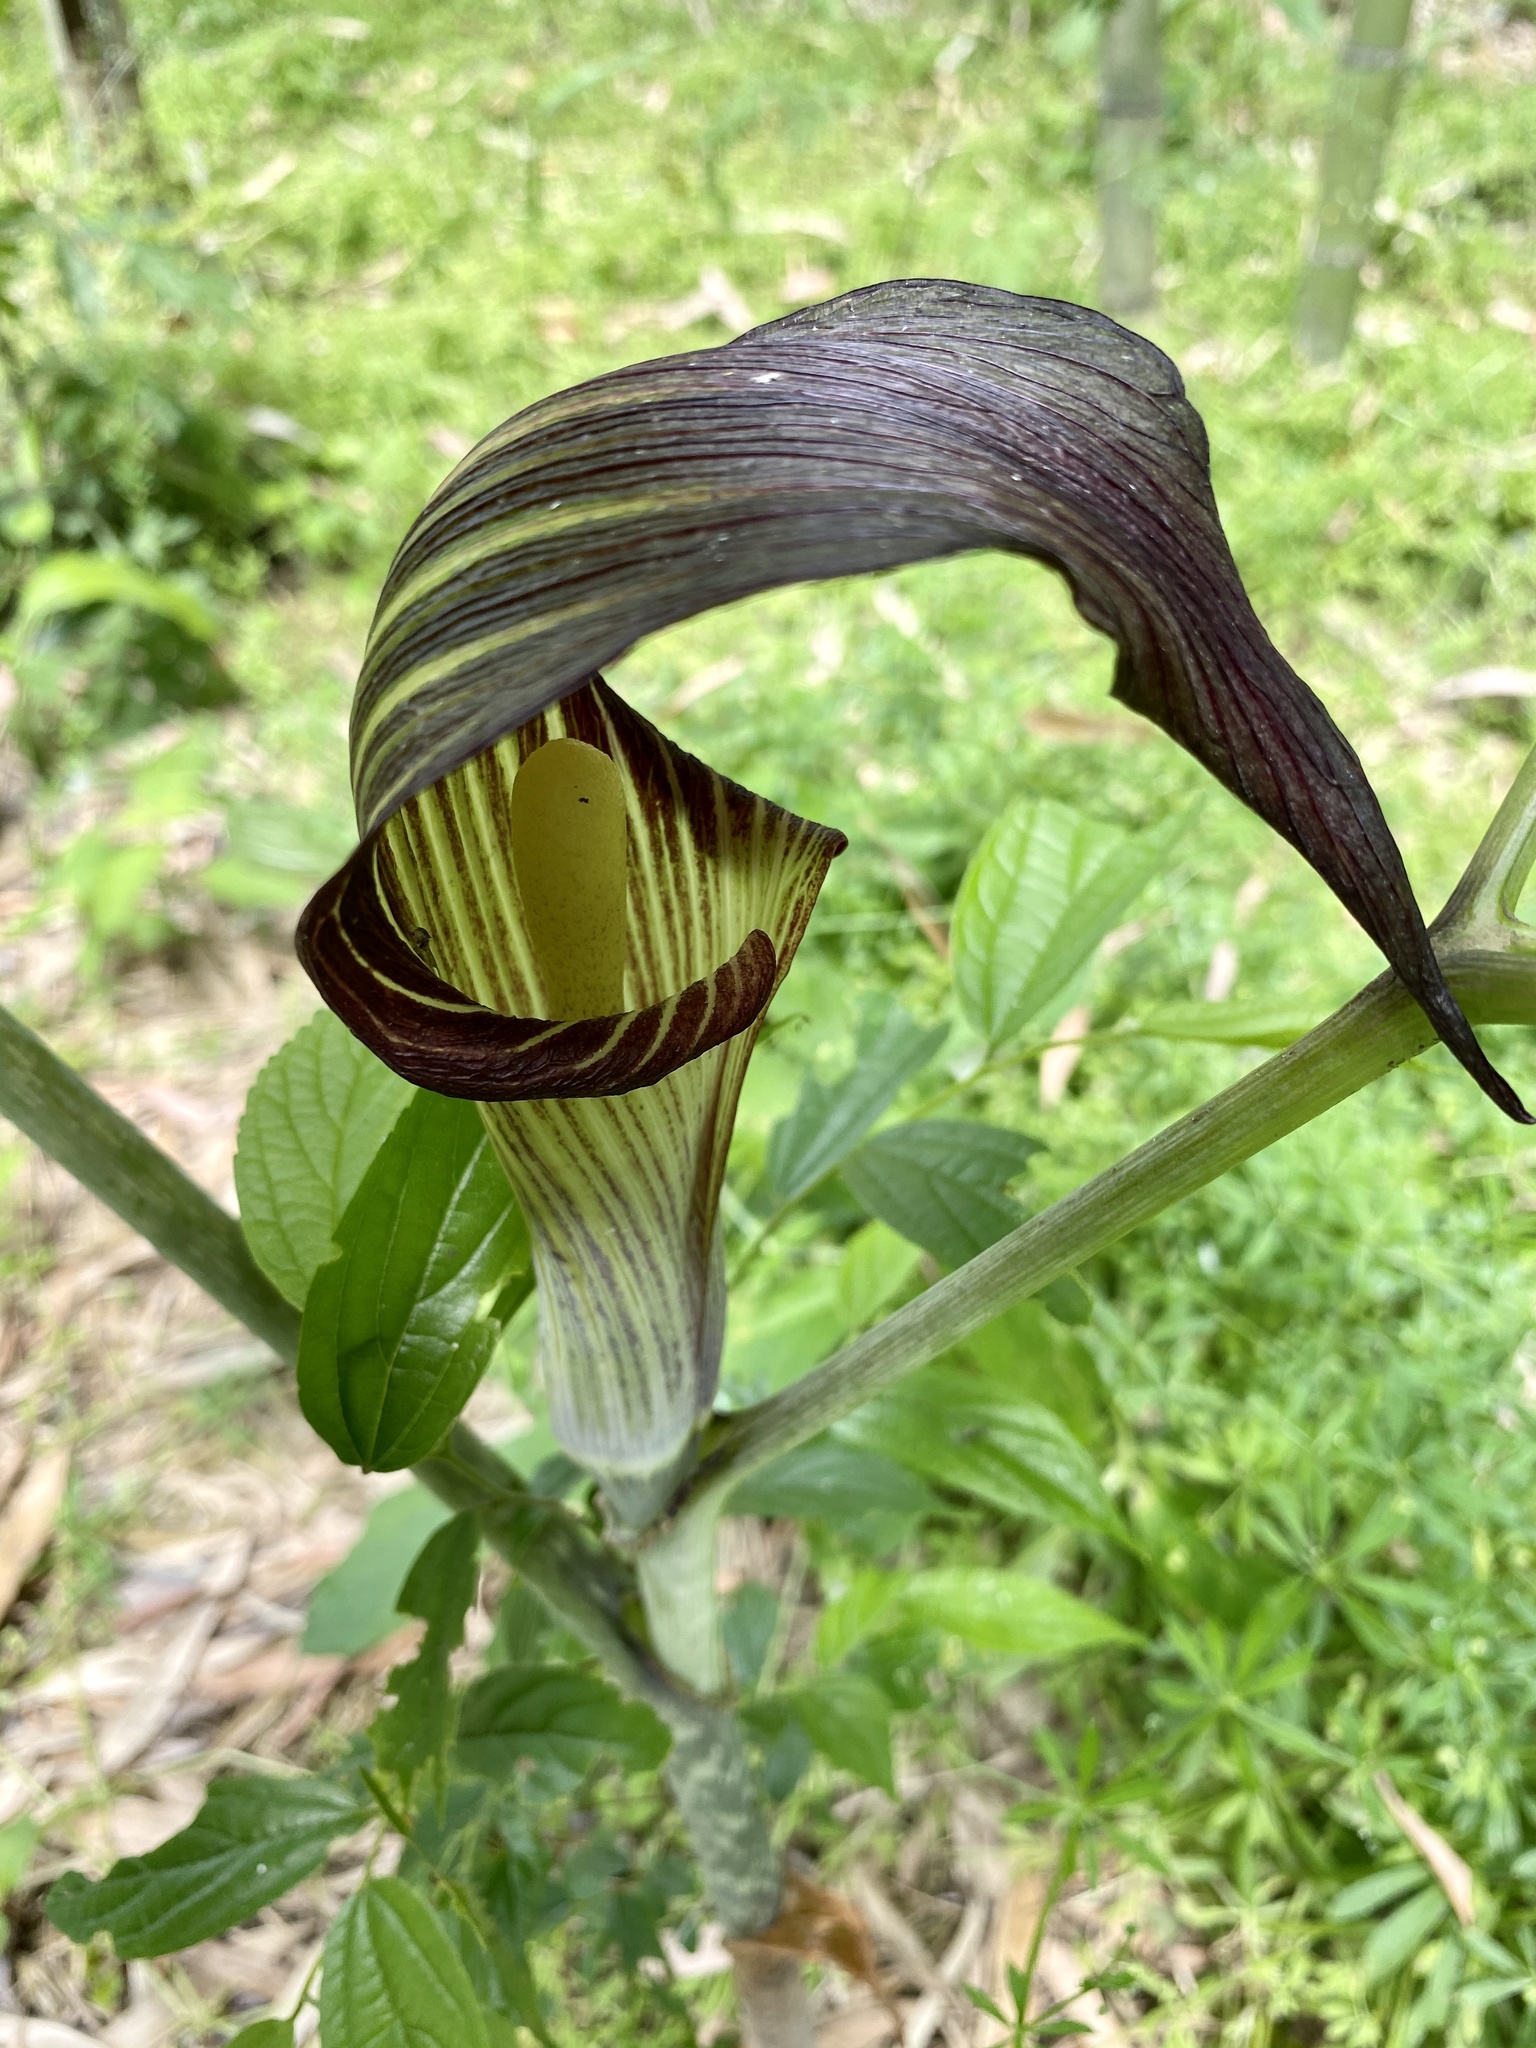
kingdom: Plantae
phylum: Tracheophyta
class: Liliopsida
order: Alismatales
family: Araceae
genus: Arisaema
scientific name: Arisaema serratum
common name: Japanese arisaema
